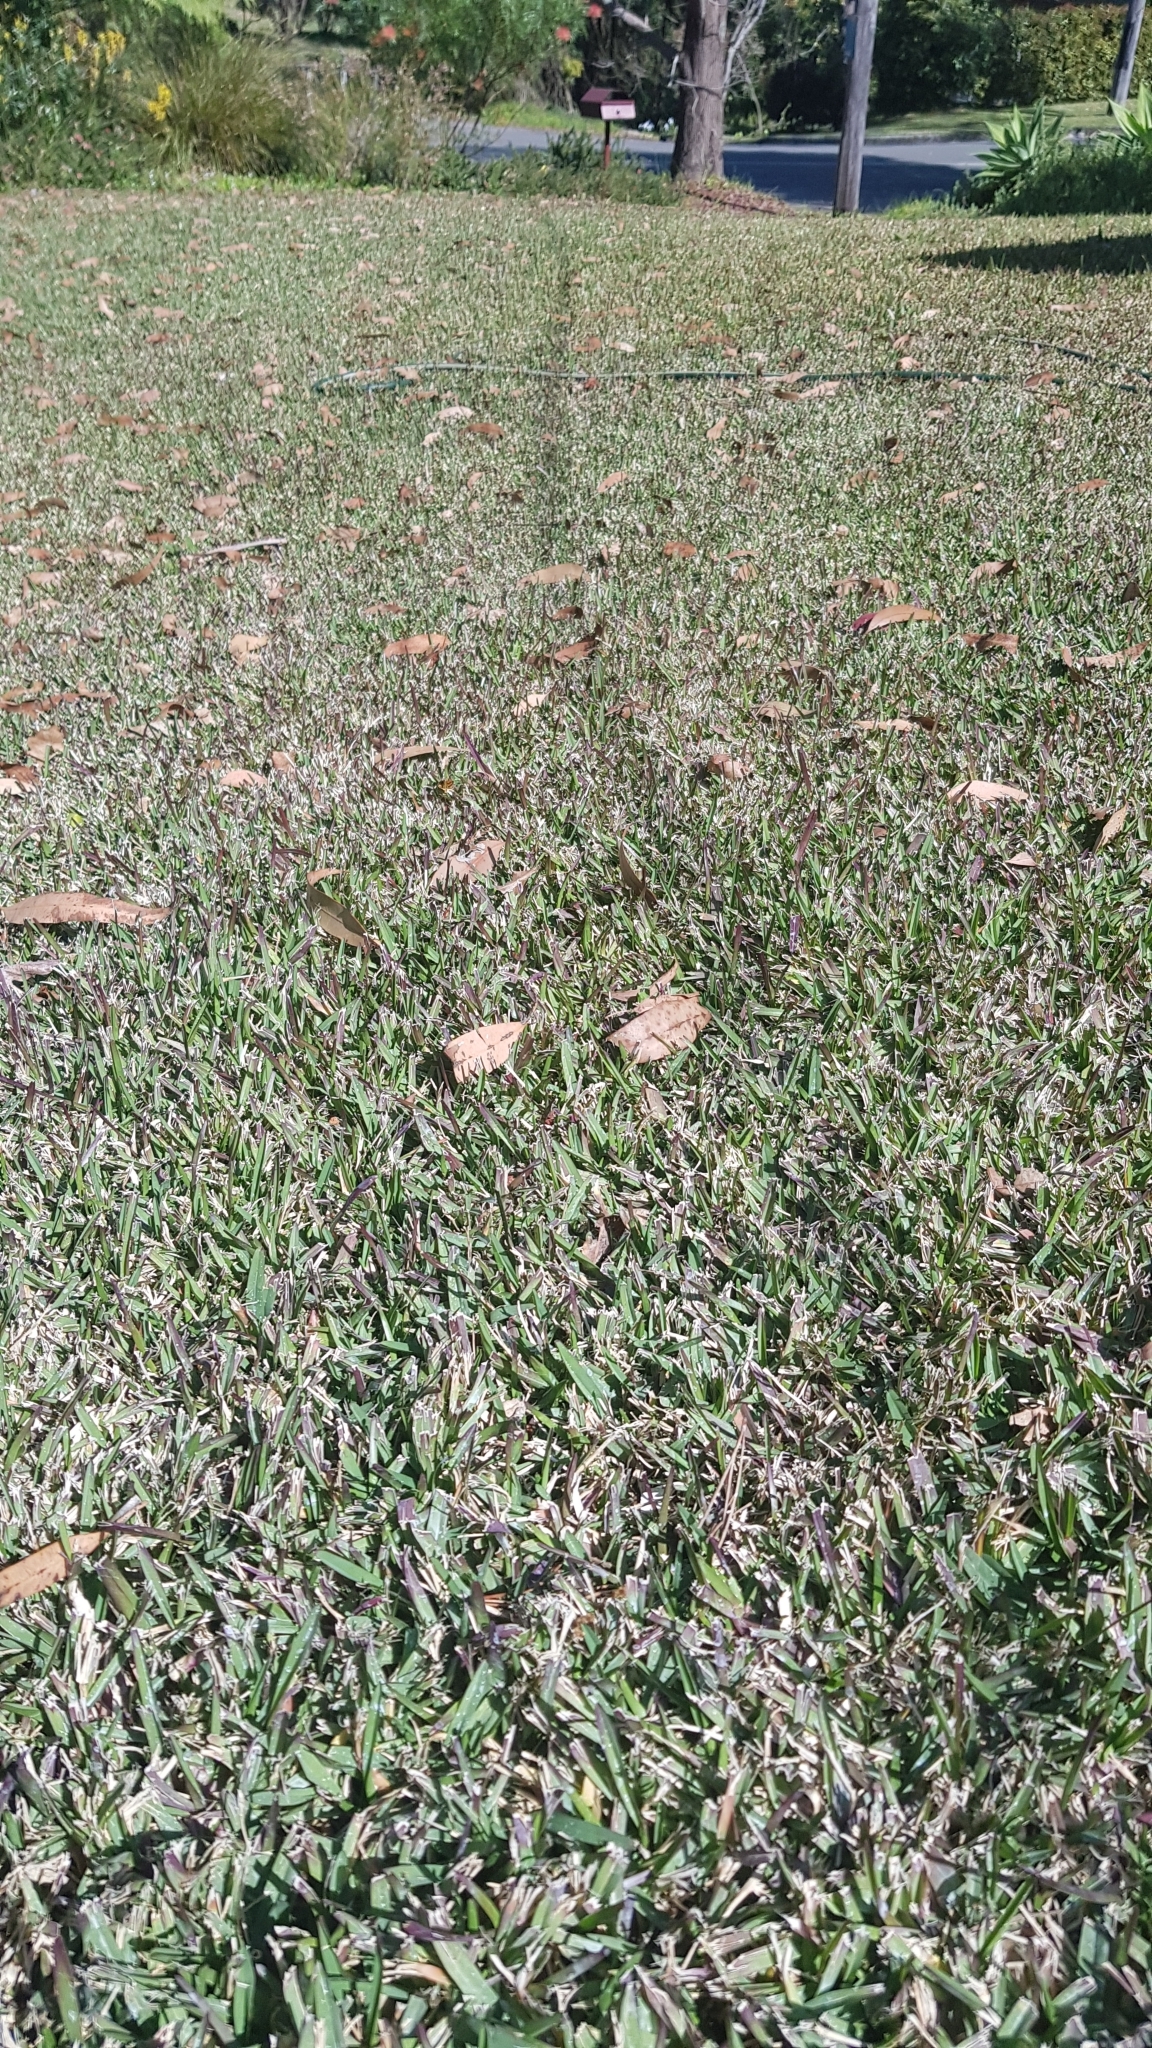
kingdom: Animalia
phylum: Arthropoda
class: Insecta
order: Lepidoptera
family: Hesperiidae
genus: Ocybadistes
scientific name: Ocybadistes walkeri
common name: Yellow-banded dart
